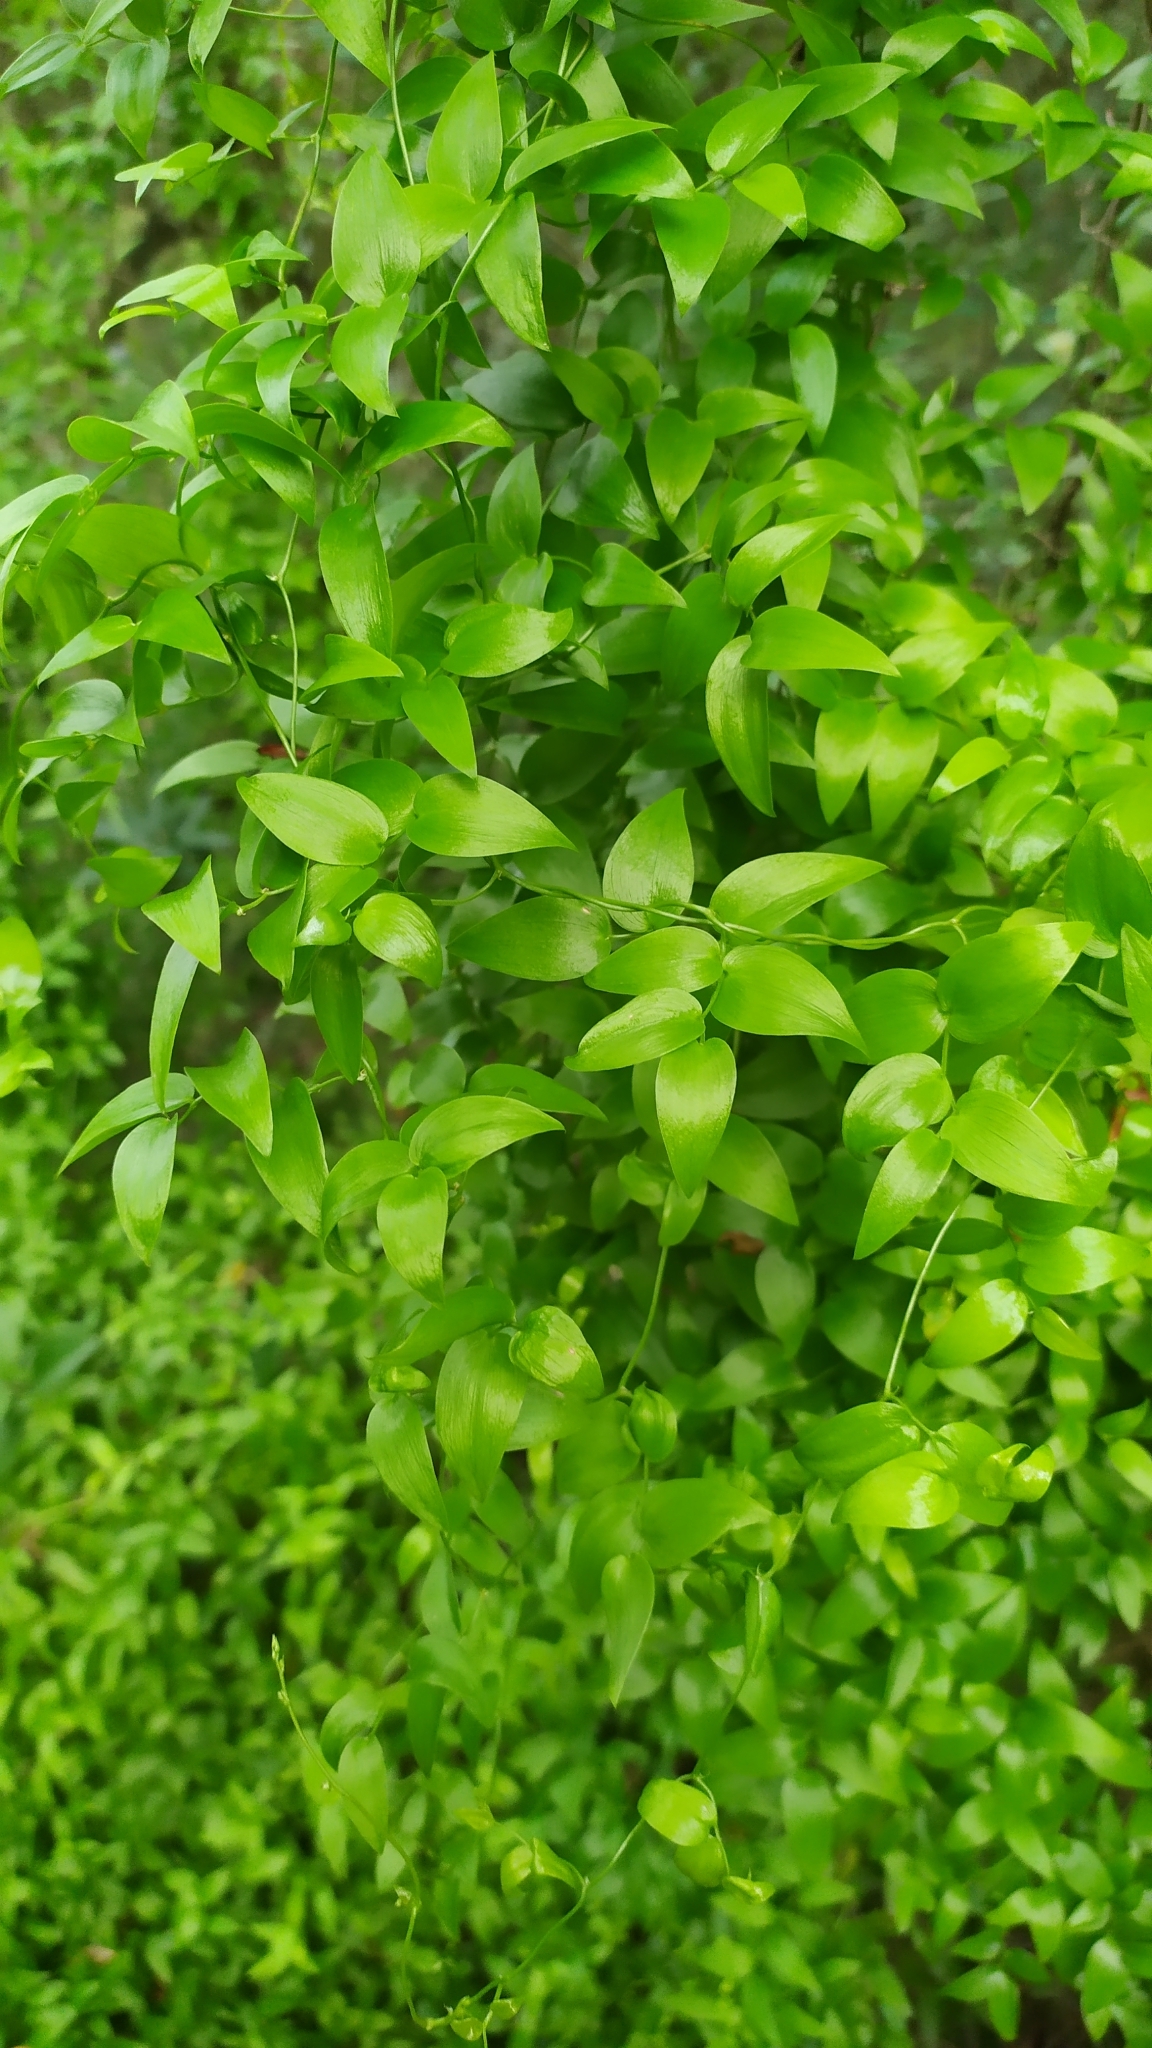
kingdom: Plantae
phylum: Tracheophyta
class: Liliopsida
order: Asparagales
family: Asparagaceae
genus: Asparagus
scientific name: Asparagus asparagoides
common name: African asparagus fern
